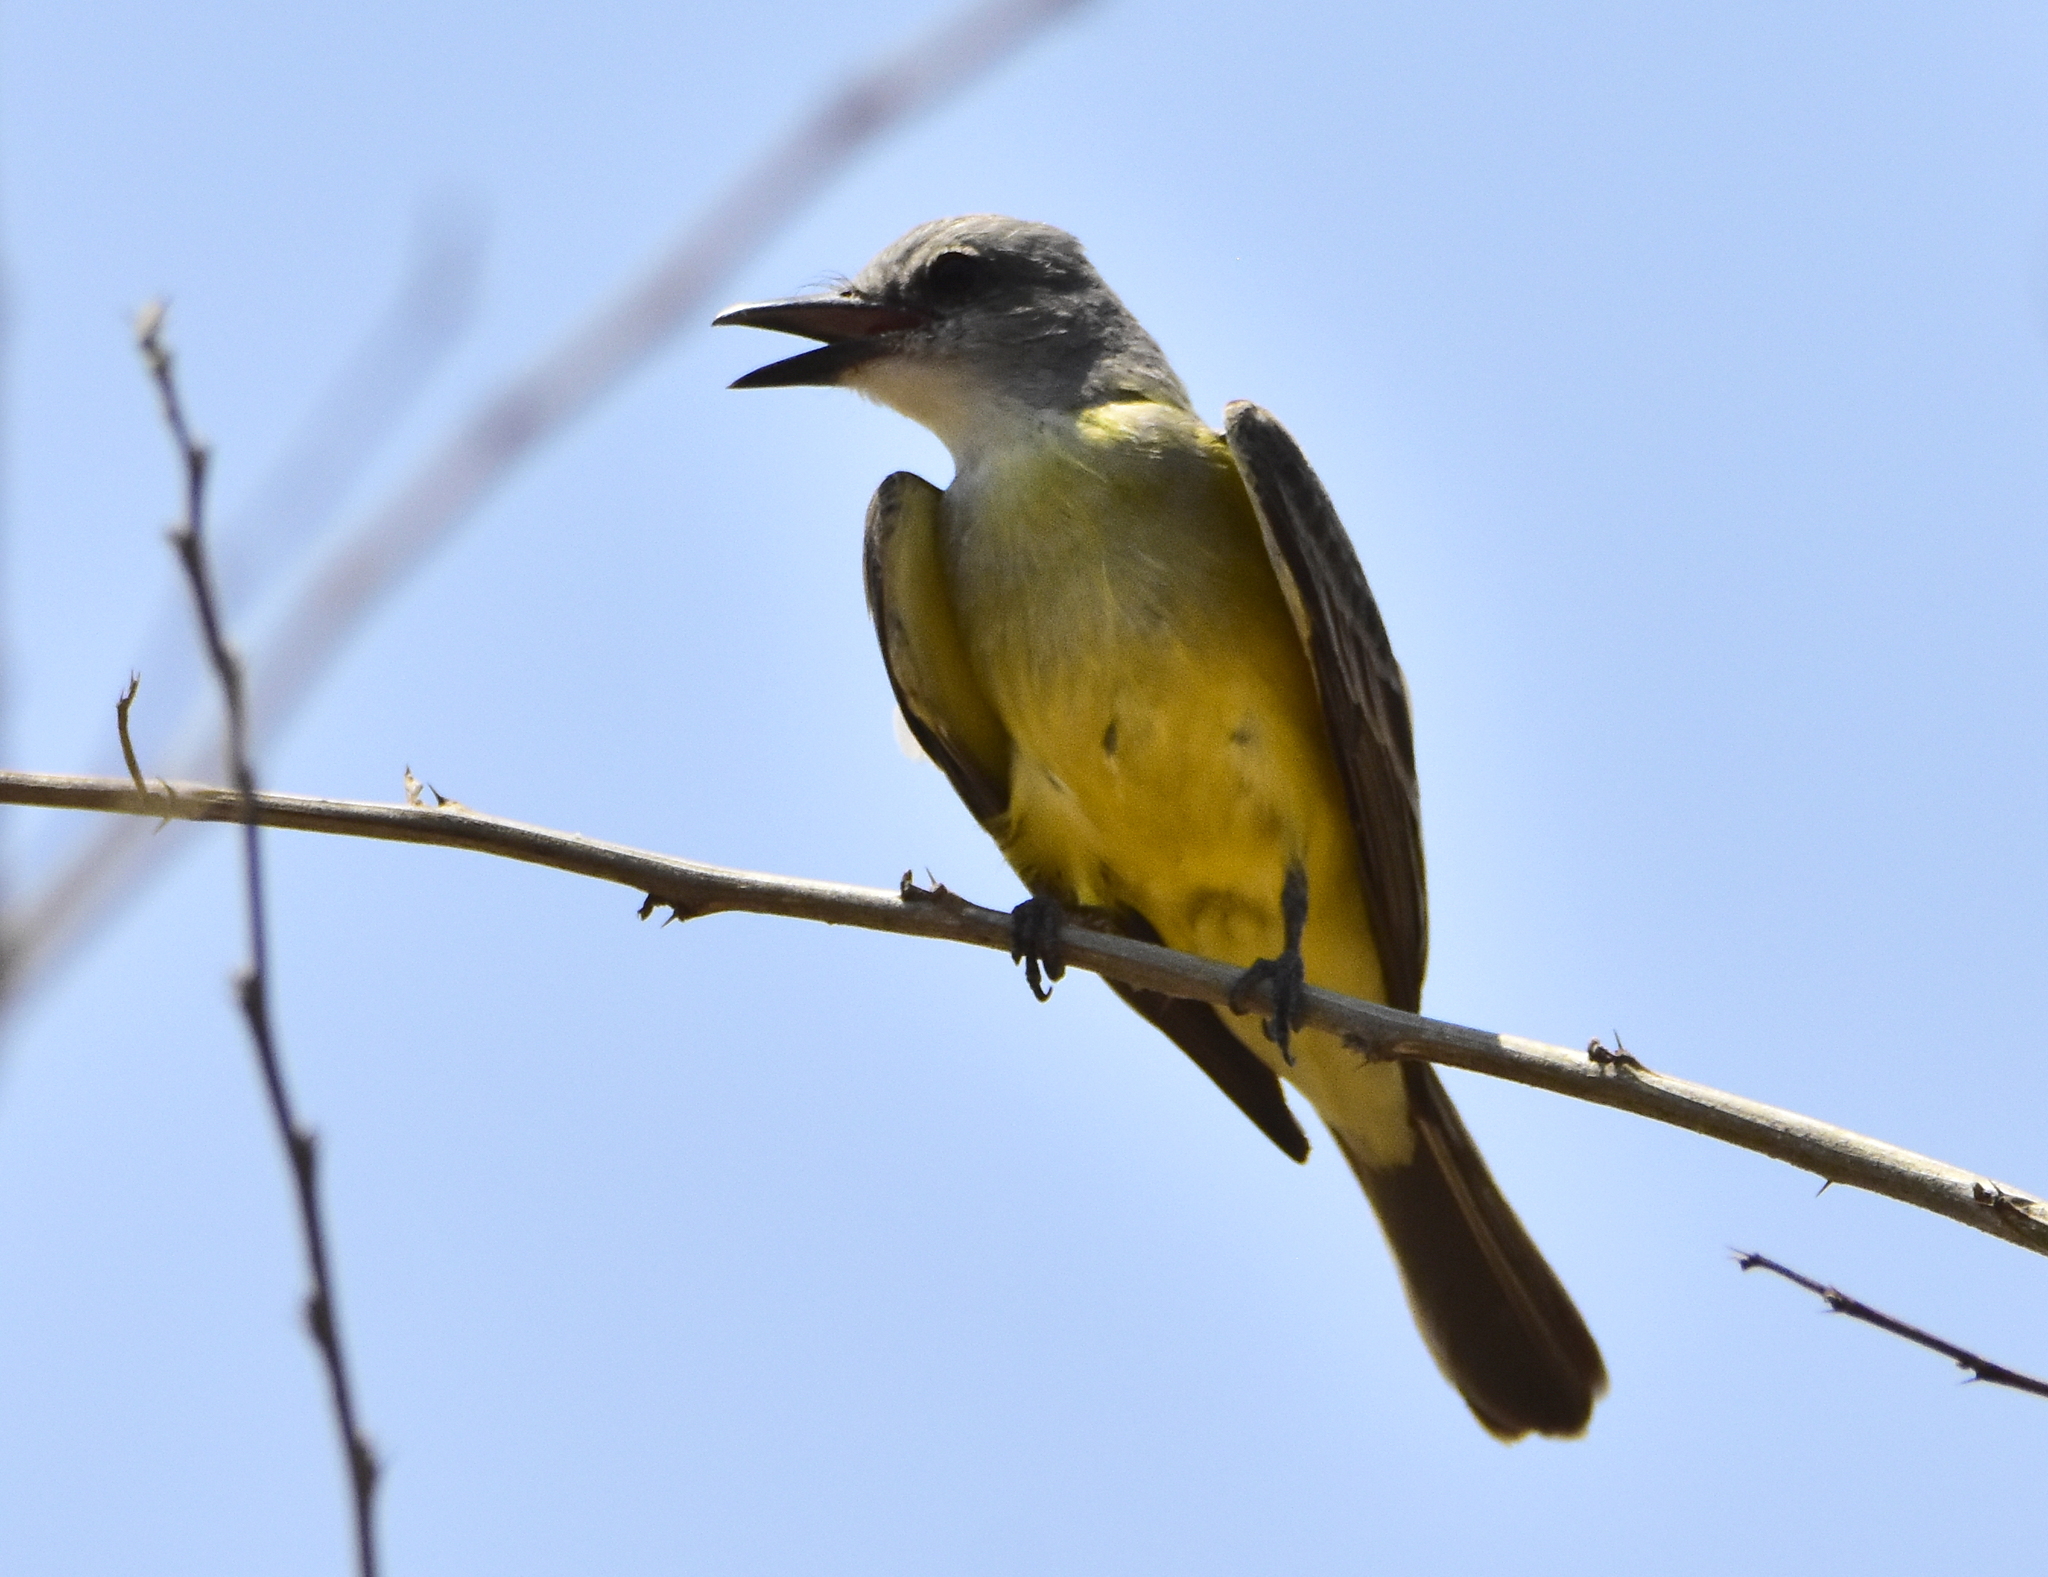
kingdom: Animalia
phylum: Chordata
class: Aves
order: Passeriformes
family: Tyrannidae
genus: Tyrannus
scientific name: Tyrannus melancholicus
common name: Tropical kingbird
